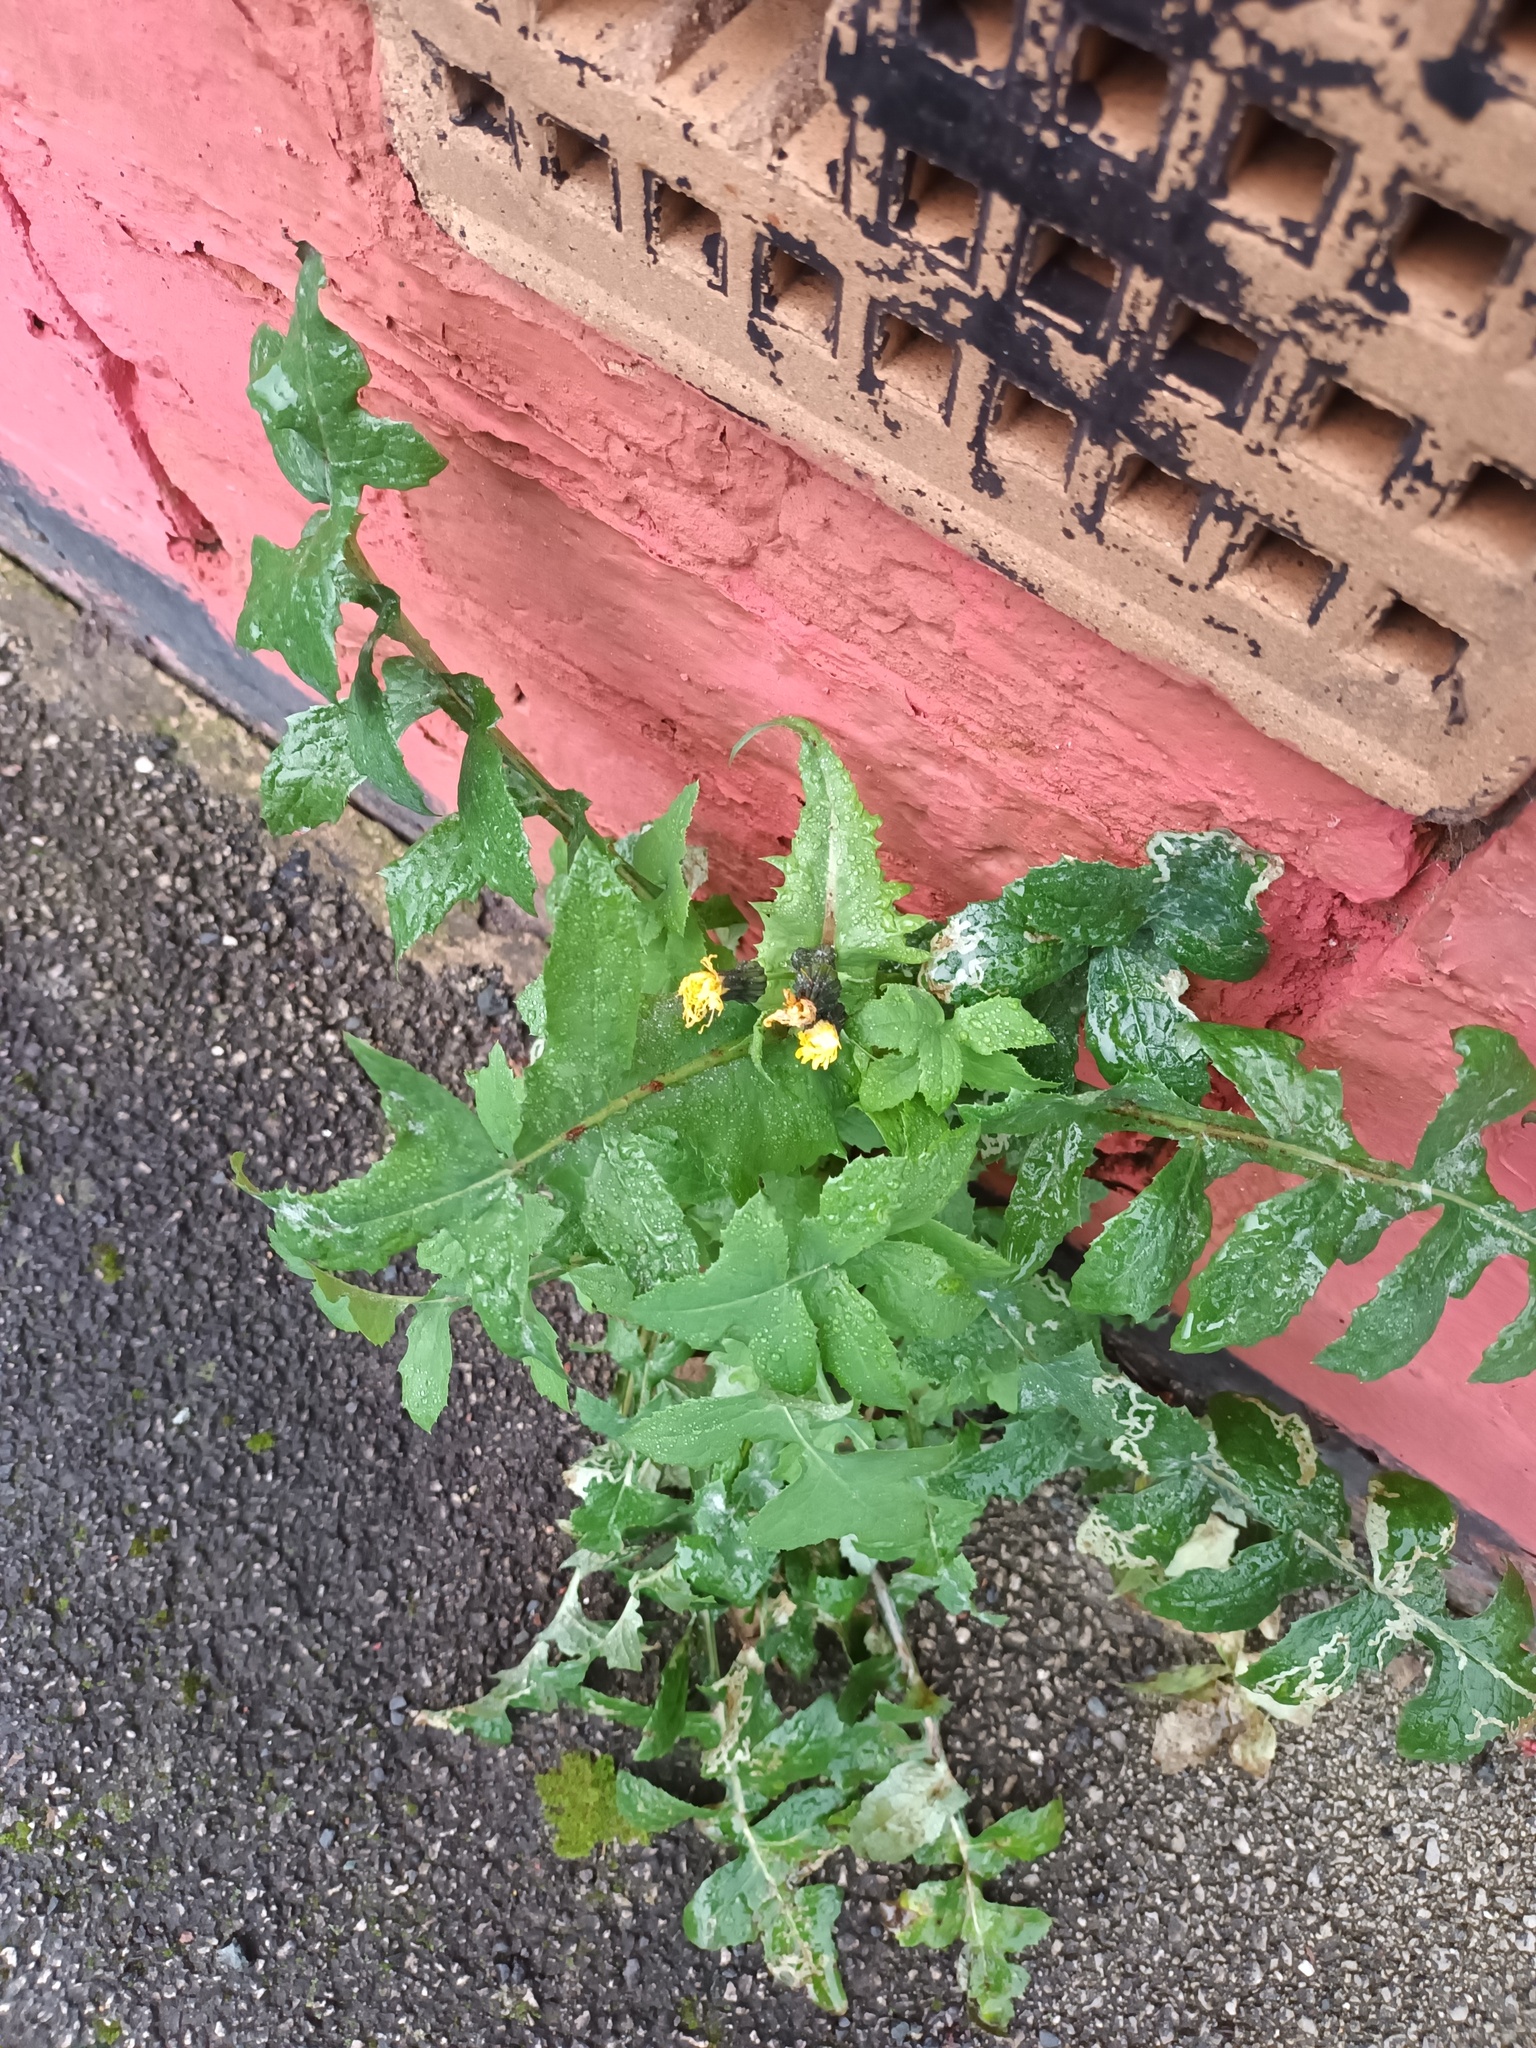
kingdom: Plantae
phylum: Tracheophyta
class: Magnoliopsida
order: Asterales
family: Asteraceae
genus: Sonchus
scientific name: Sonchus oleraceus
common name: Common sowthistle
